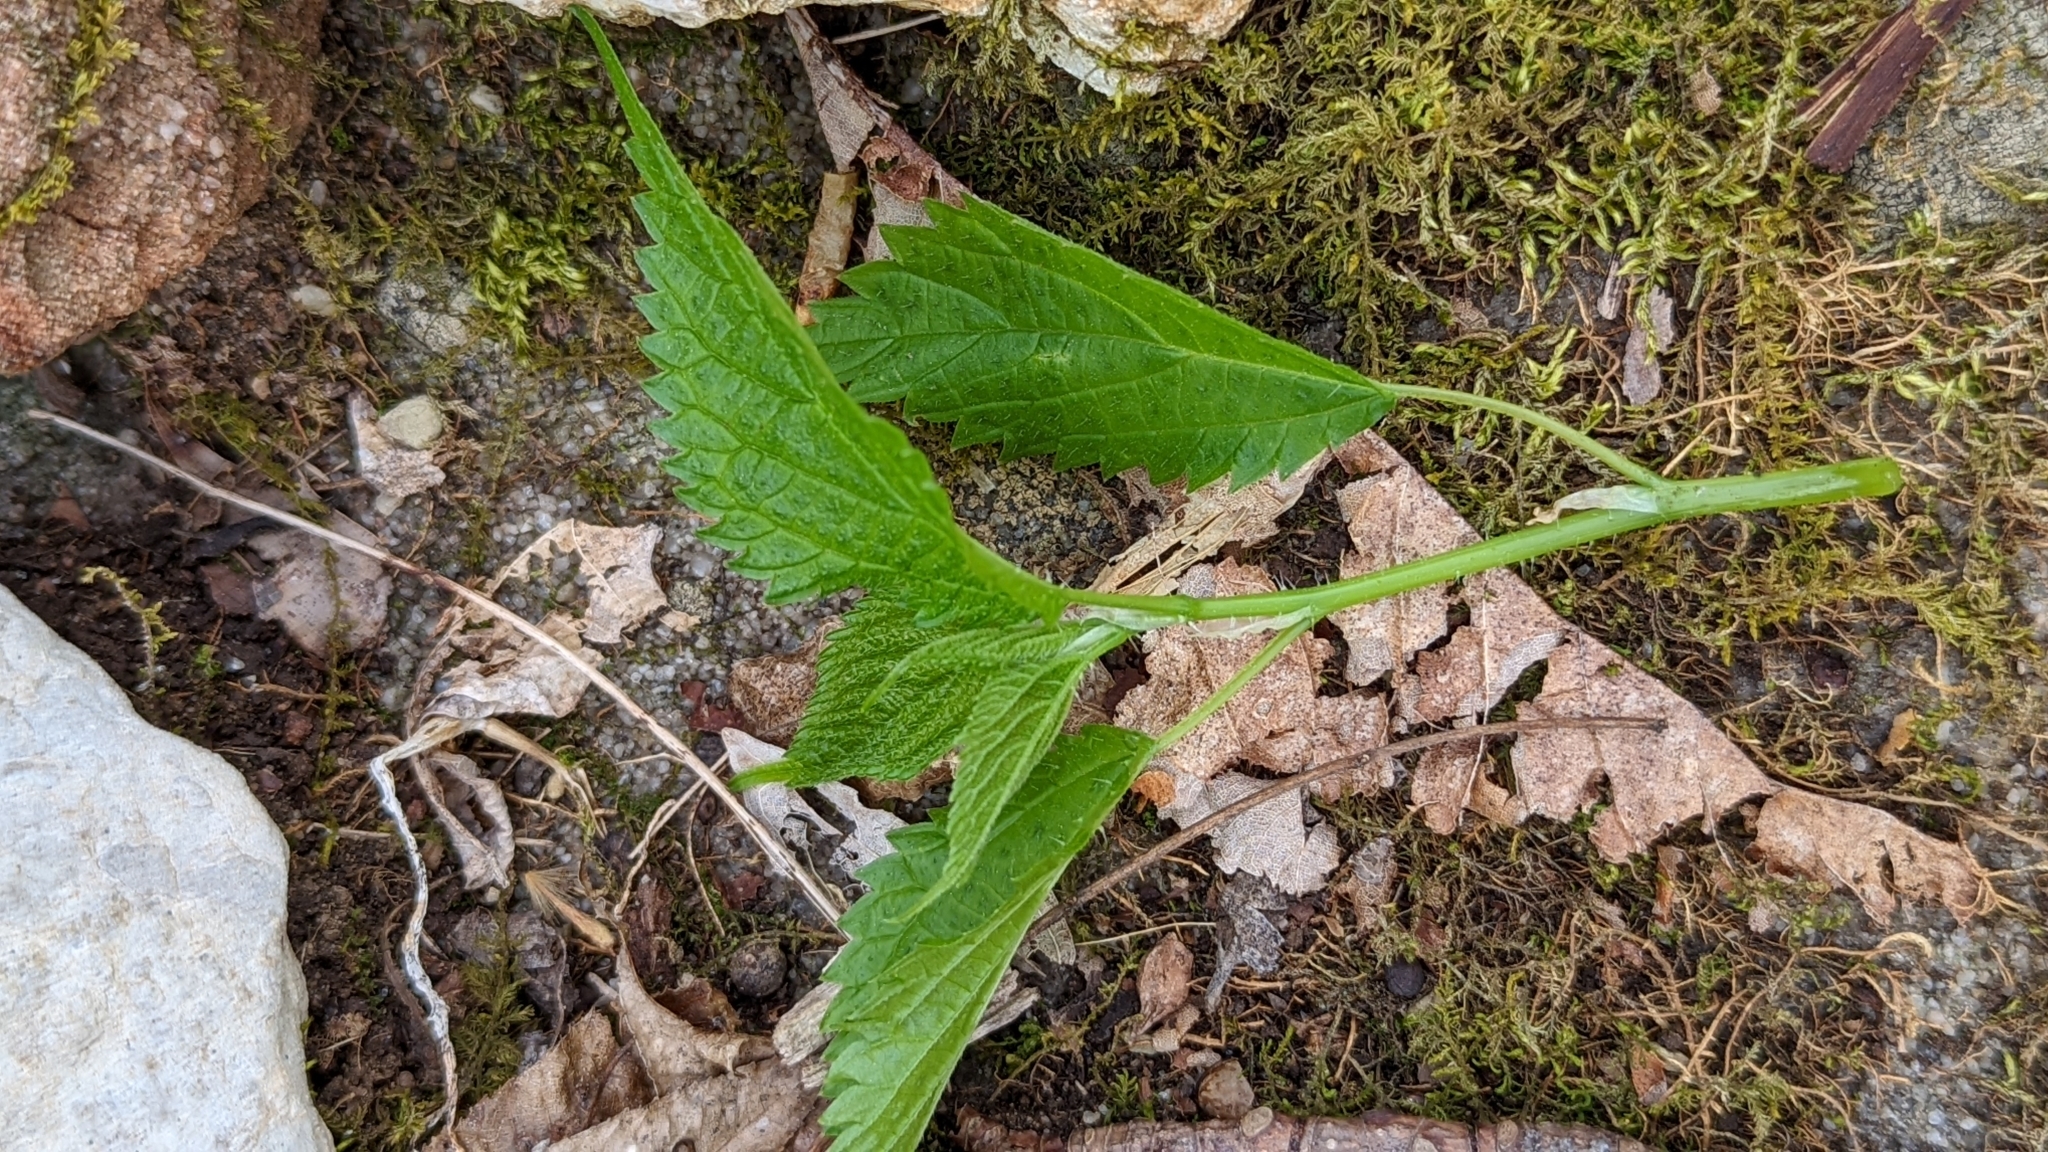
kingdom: Plantae
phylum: Tracheophyta
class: Magnoliopsida
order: Rosales
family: Urticaceae
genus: Laportea
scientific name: Laportea canadensis
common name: Canada nettle
